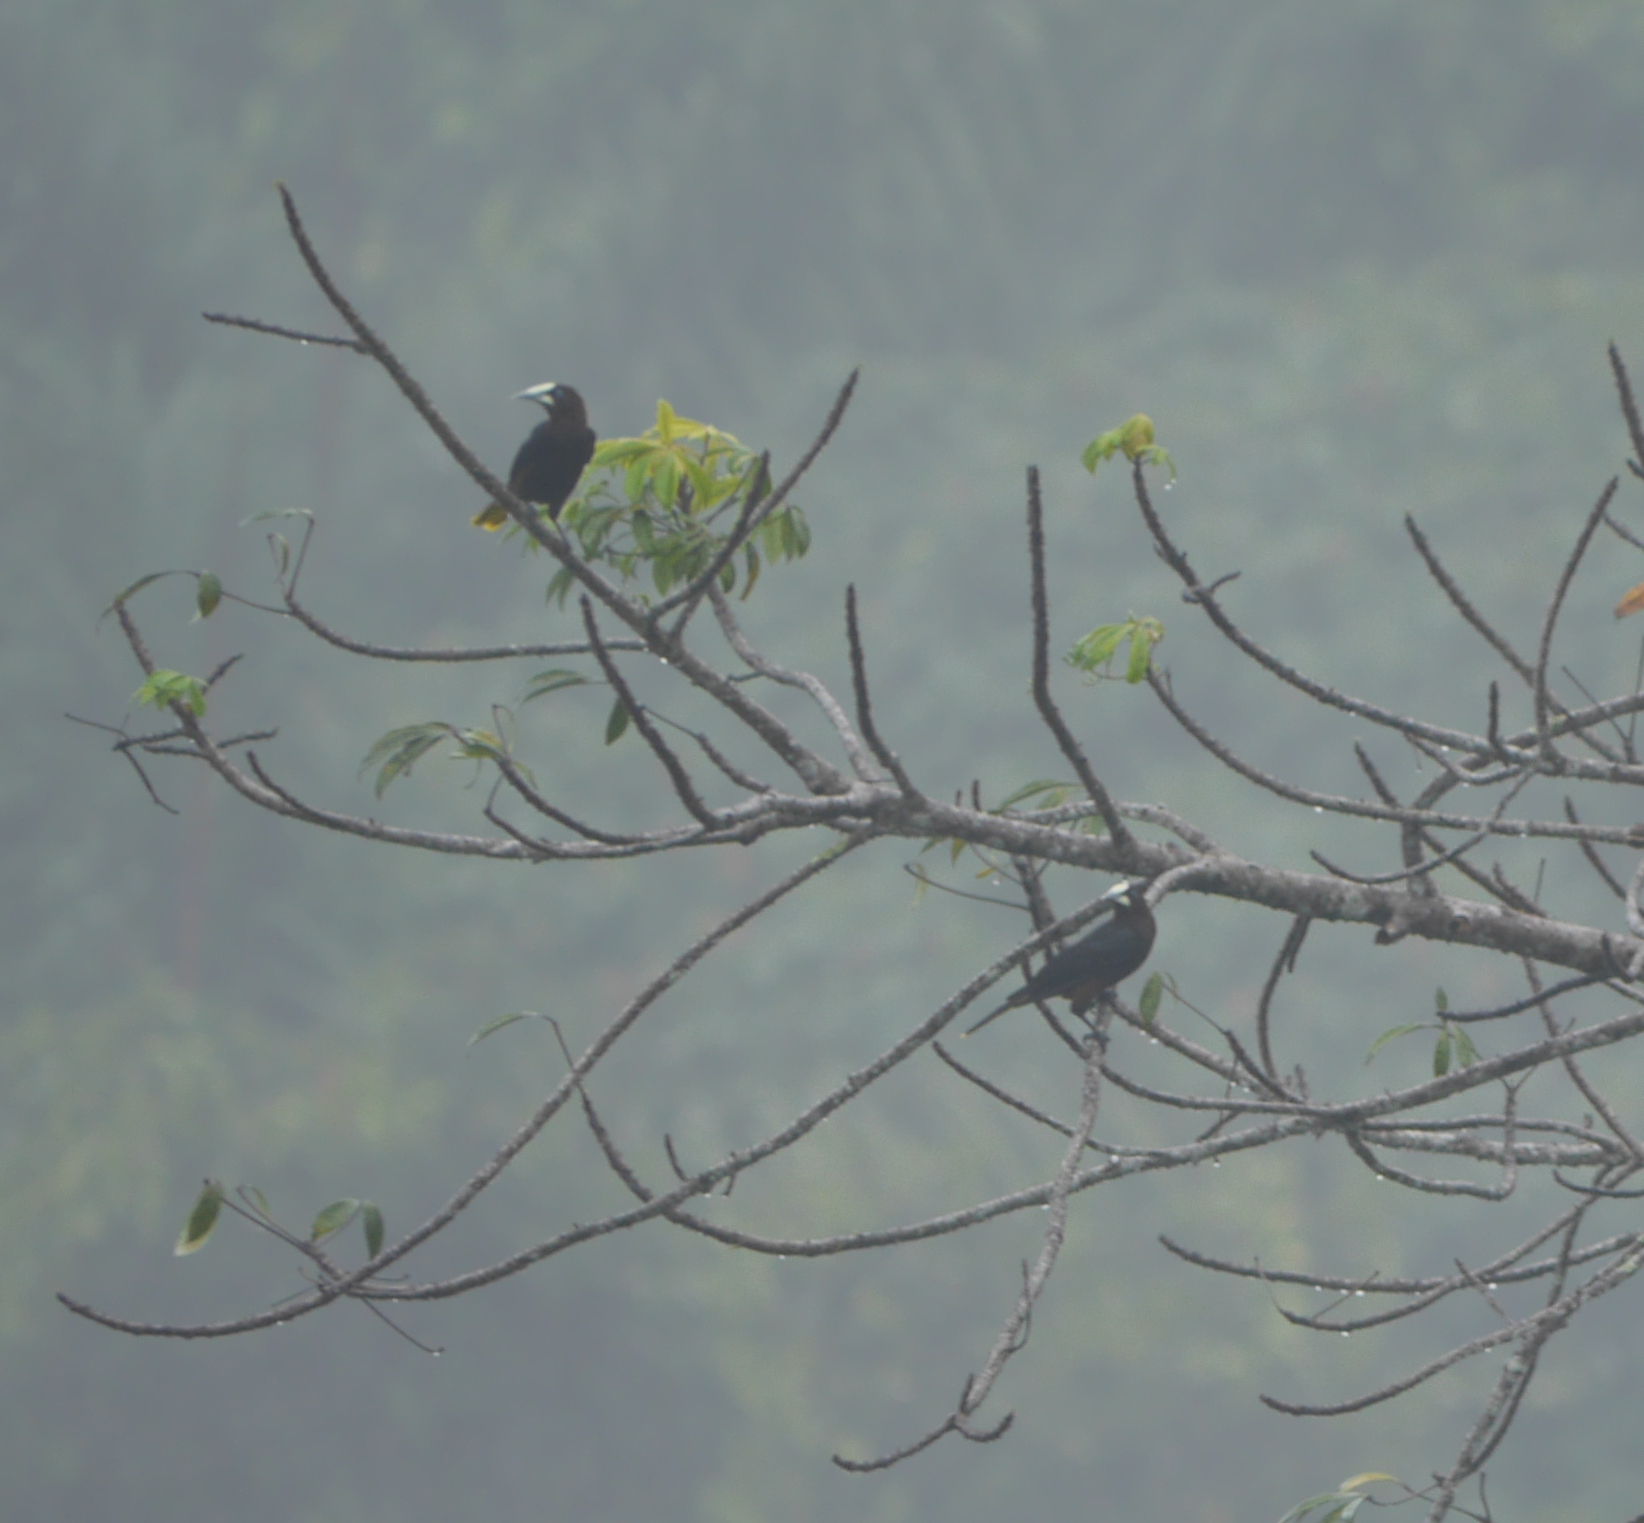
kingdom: Animalia
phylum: Chordata
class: Aves
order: Passeriformes
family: Icteridae
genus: Psarocolius
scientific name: Psarocolius wagleri
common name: Chestnut-headed oropendola
